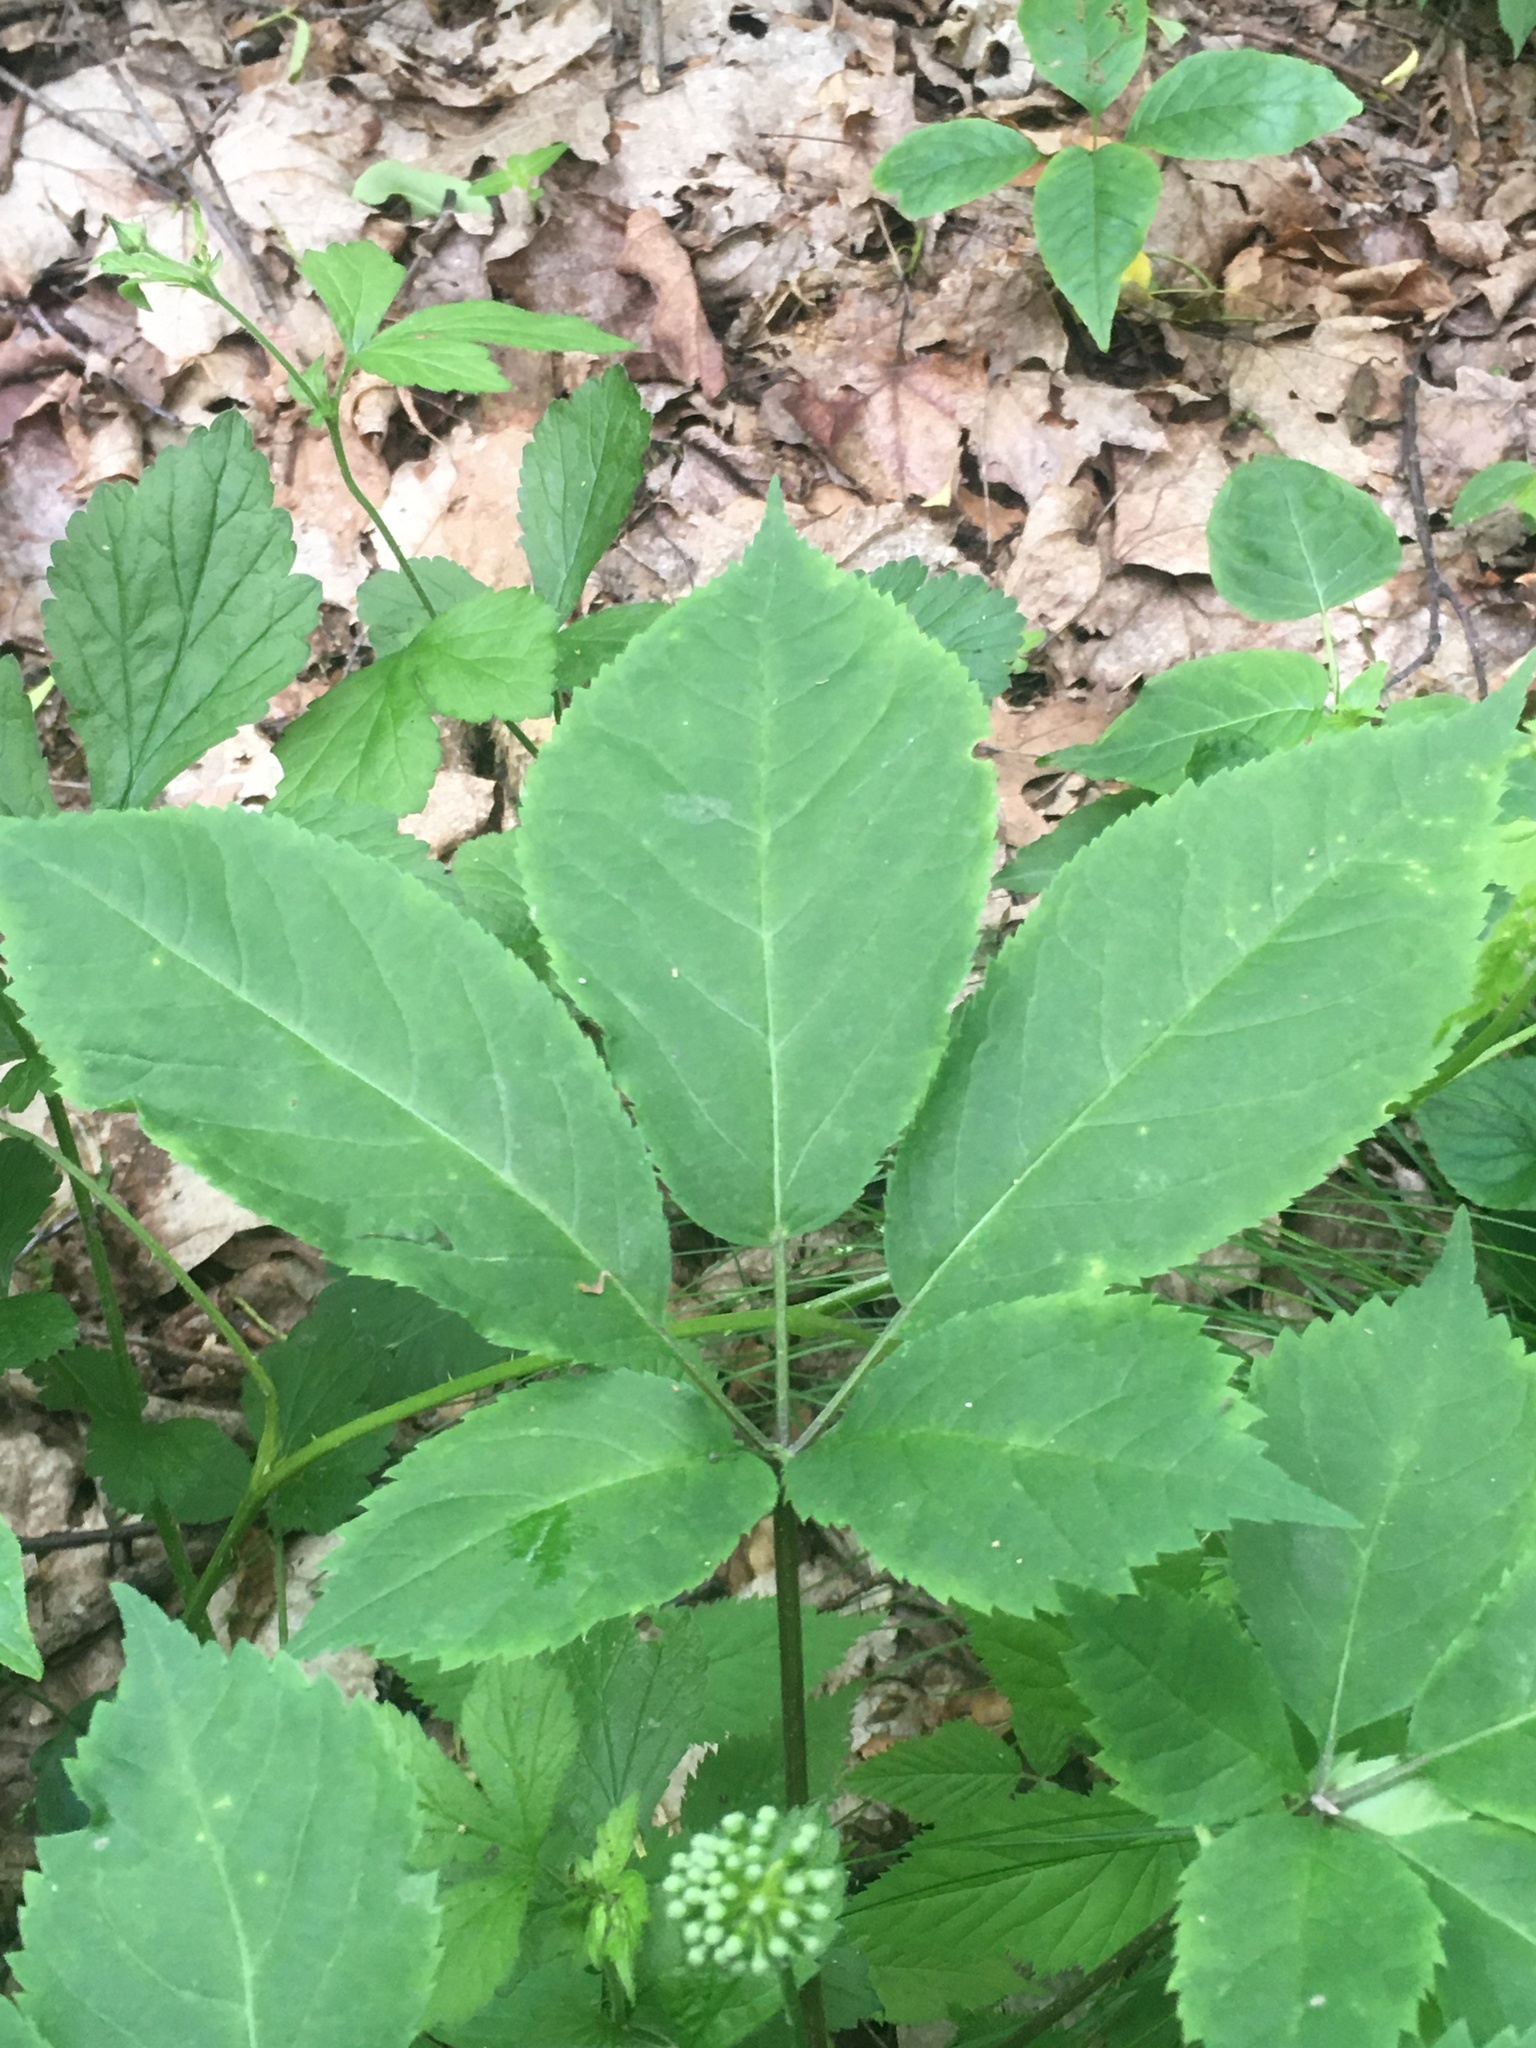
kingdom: Plantae
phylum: Tracheophyta
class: Magnoliopsida
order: Apiales
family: Araliaceae
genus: Panax
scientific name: Panax quinquefolius
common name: American ginseng
